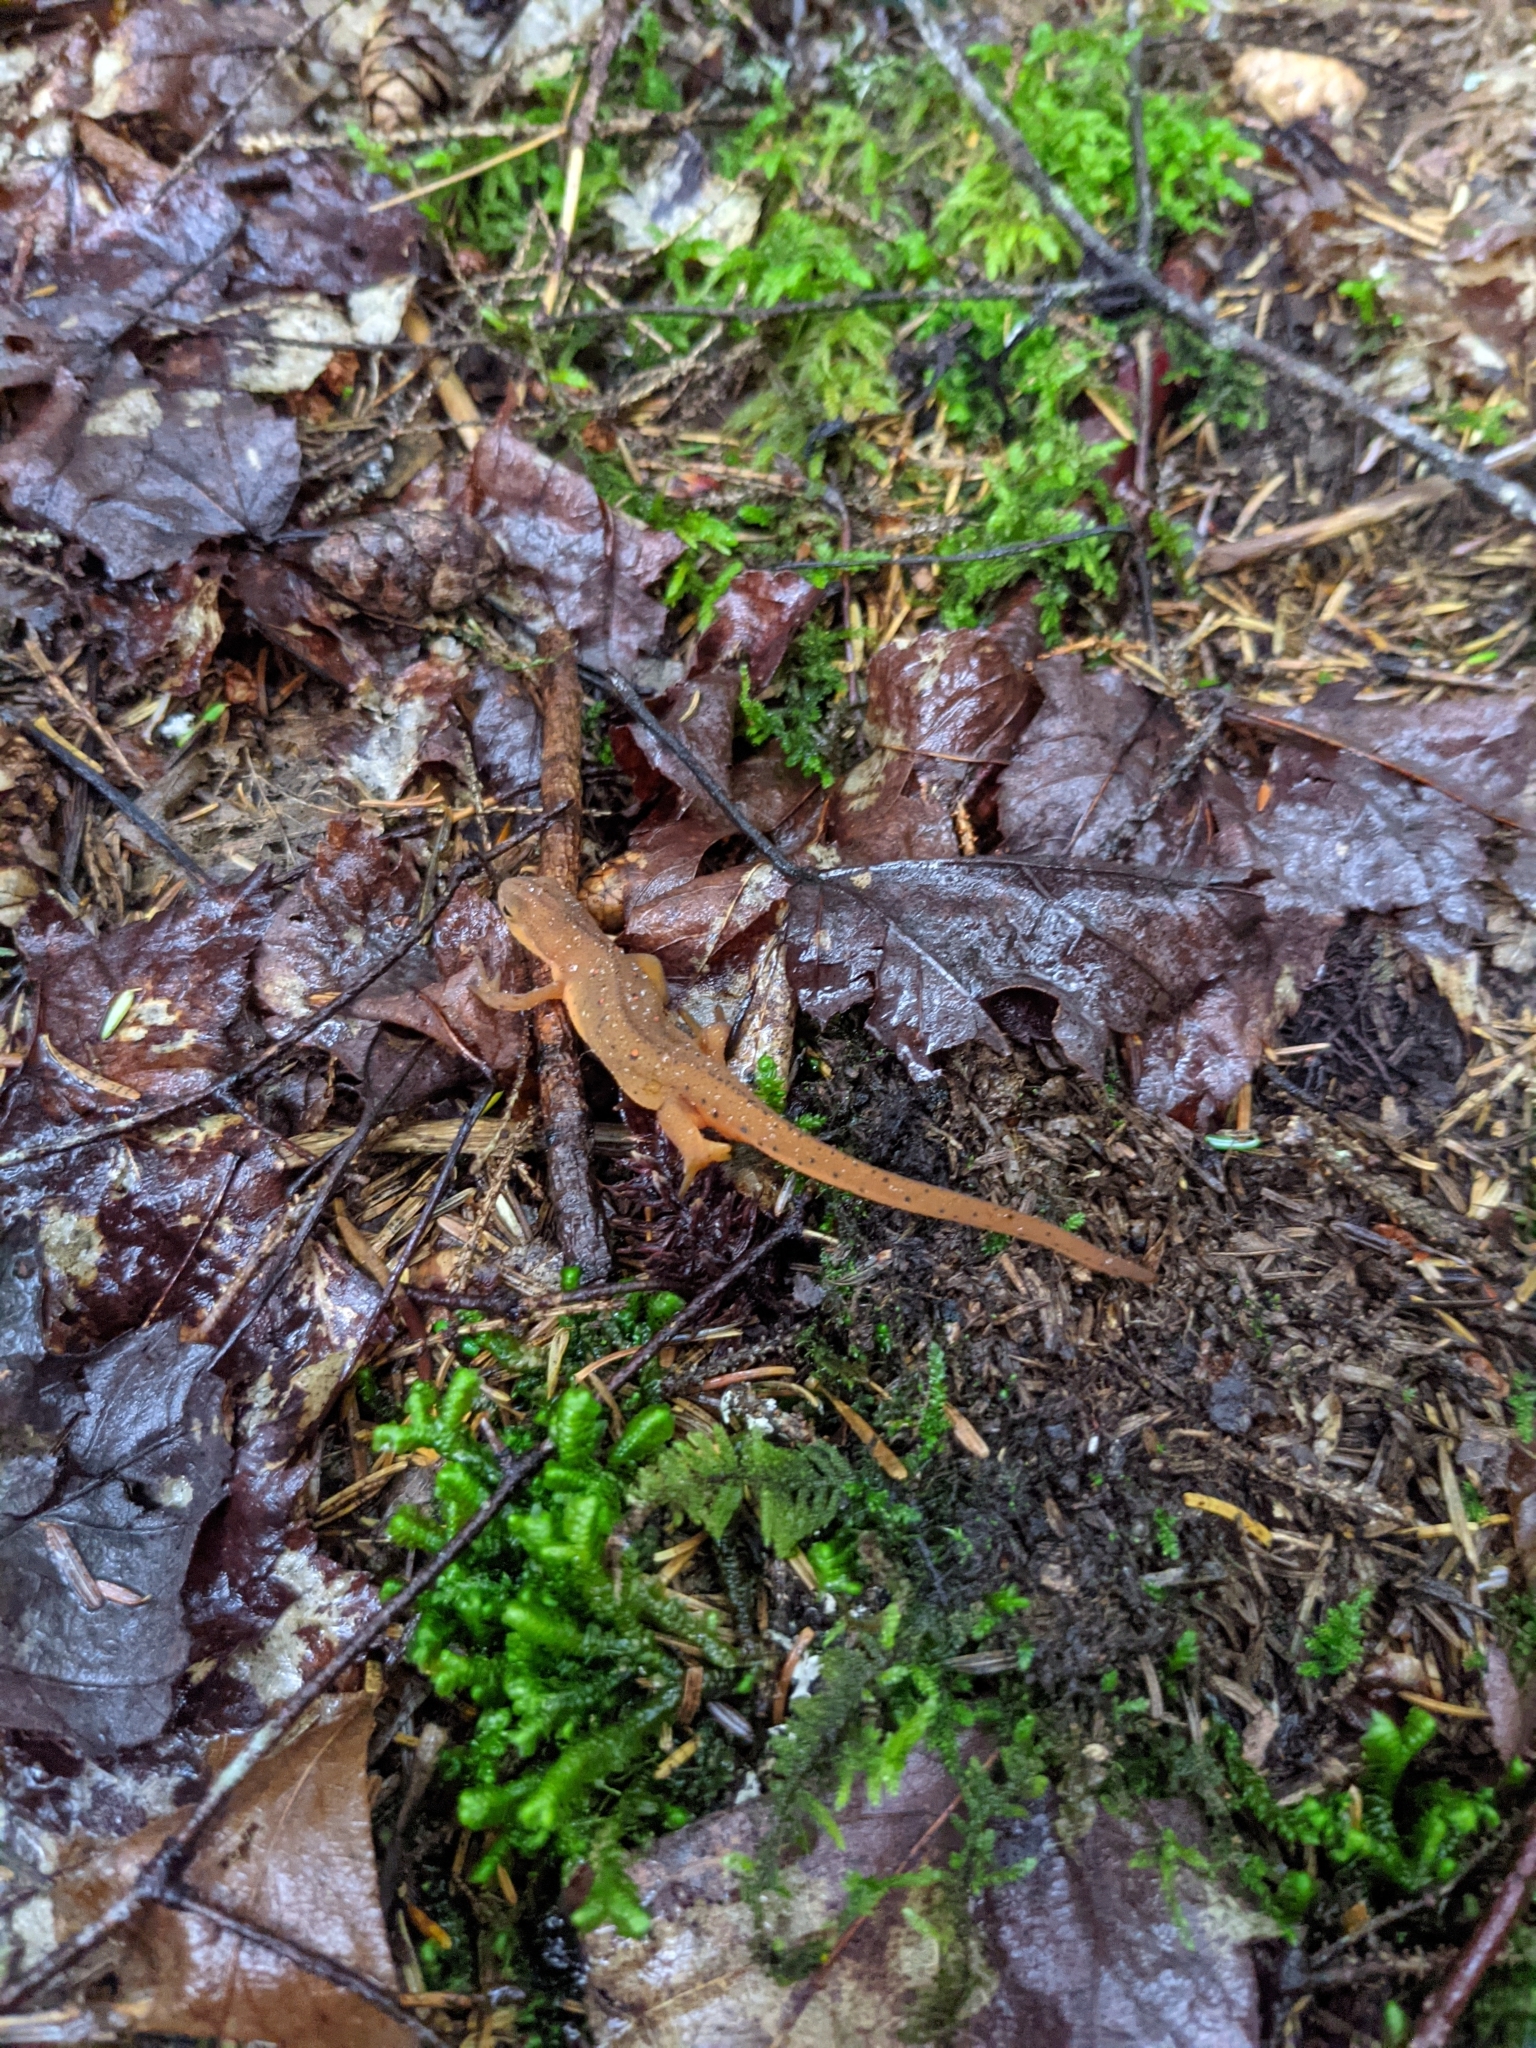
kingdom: Animalia
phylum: Chordata
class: Amphibia
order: Caudata
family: Salamandridae
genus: Notophthalmus
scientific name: Notophthalmus viridescens
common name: Eastern newt
